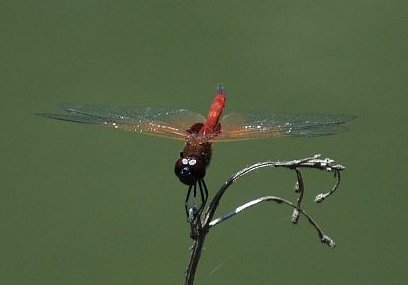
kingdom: Animalia
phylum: Arthropoda
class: Insecta
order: Odonata
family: Libellulidae
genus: Tramea
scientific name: Tramea limbata
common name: Ferruginous glider
